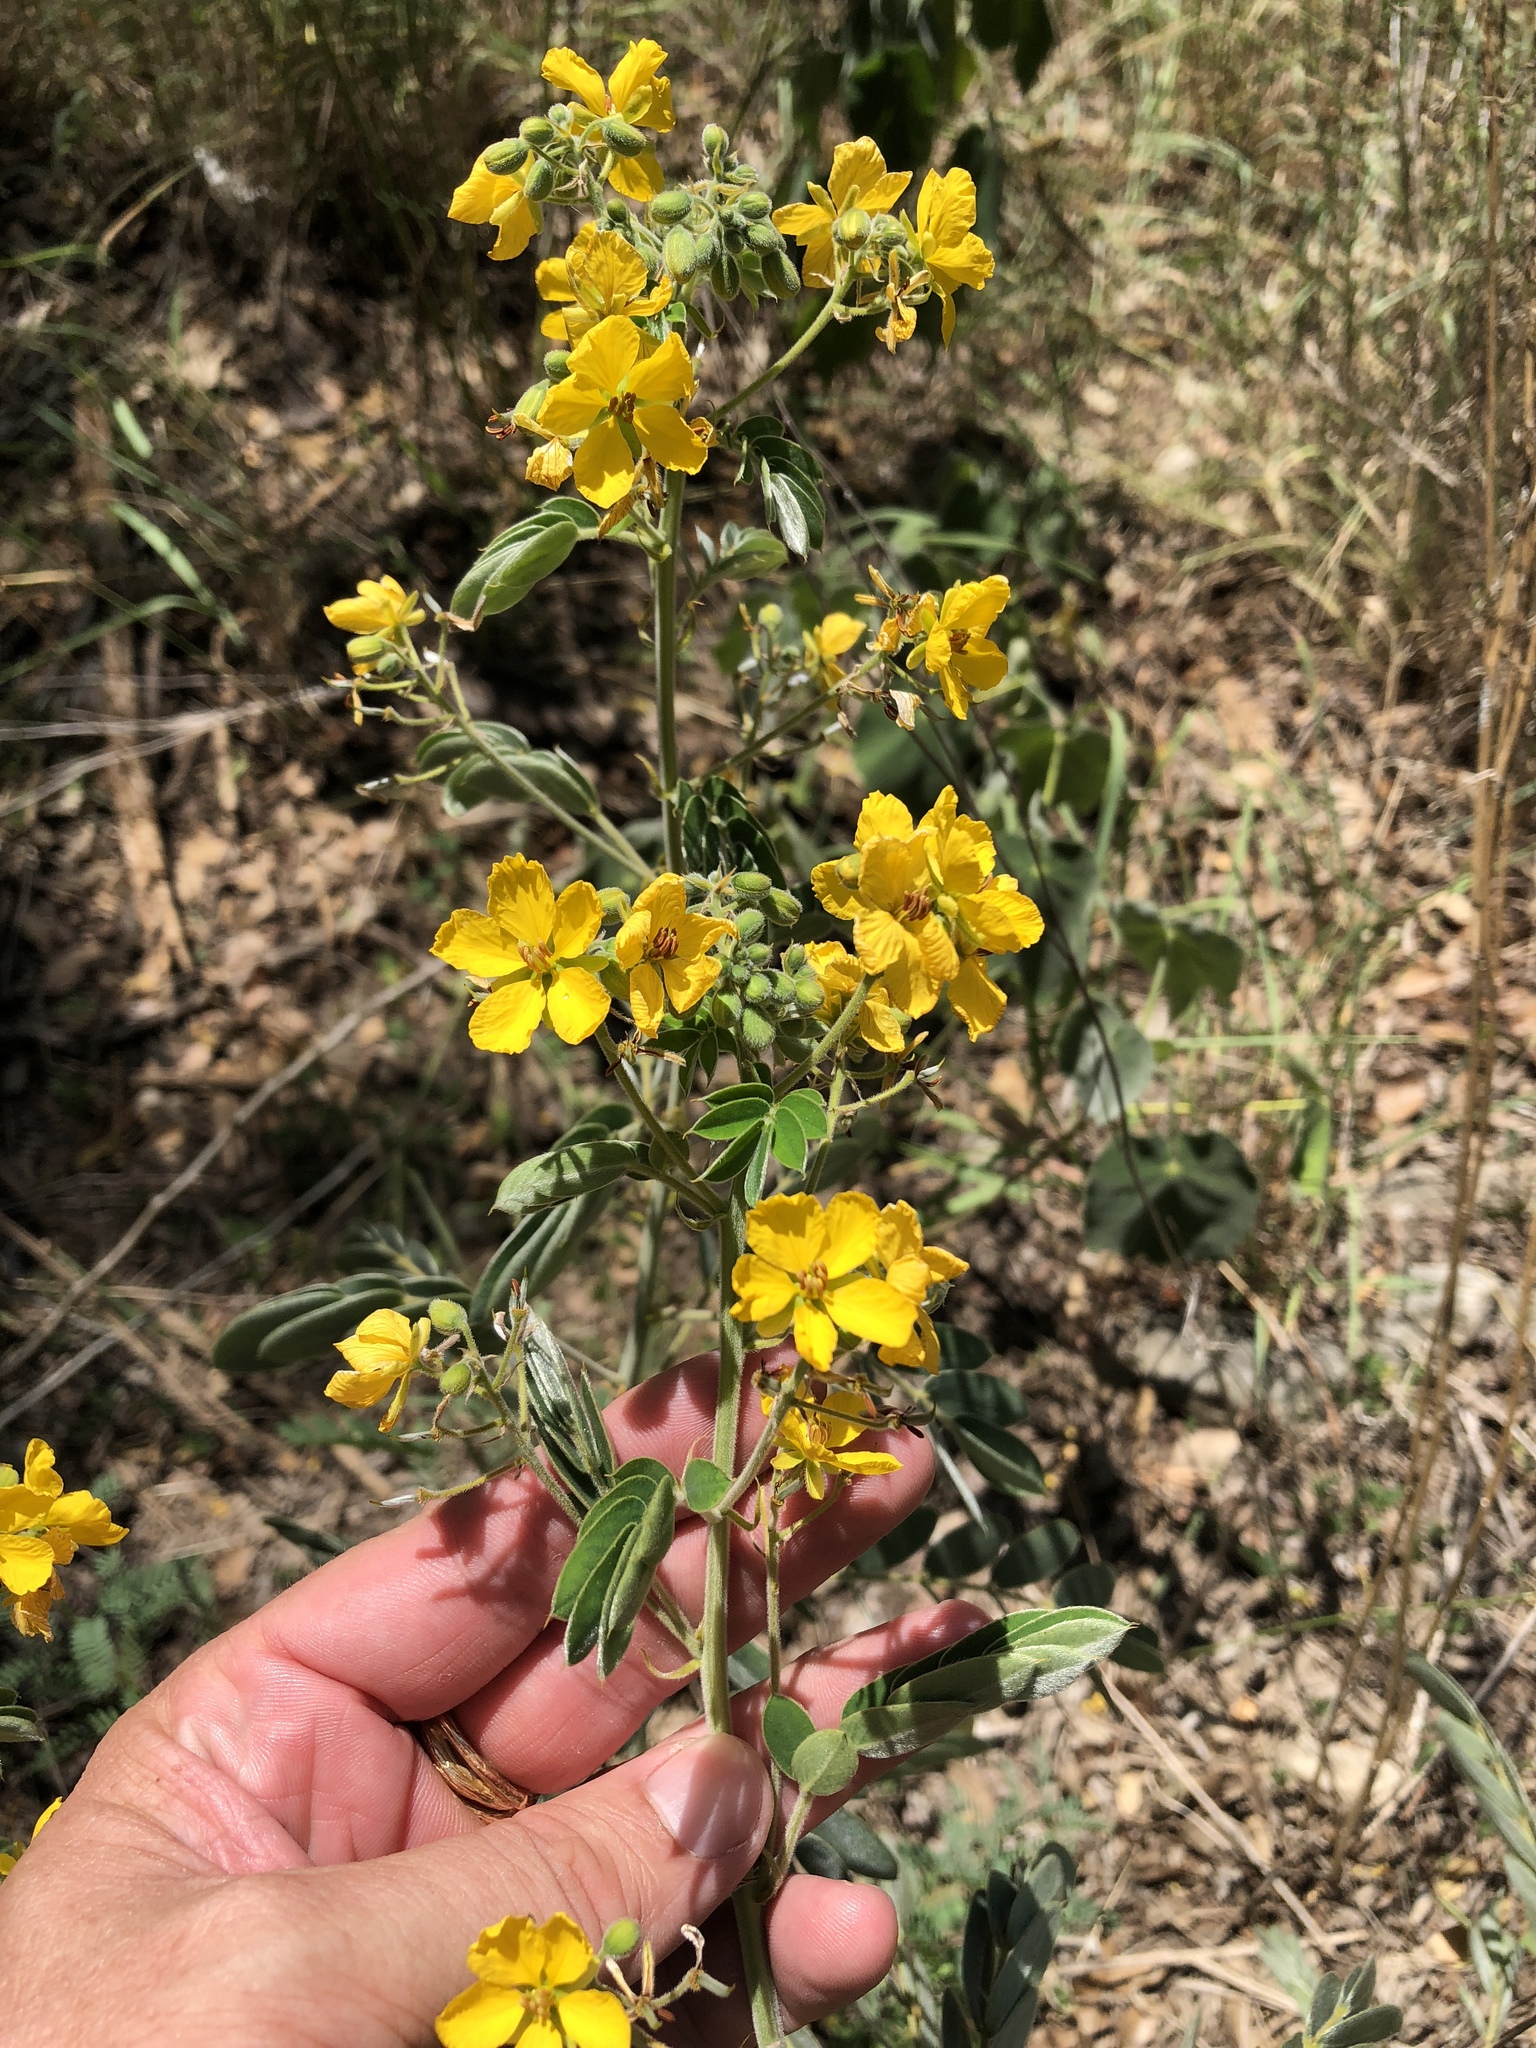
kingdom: Plantae
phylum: Tracheophyta
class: Magnoliopsida
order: Fabales
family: Fabaceae
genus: Senna
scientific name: Senna lindheimeriana
